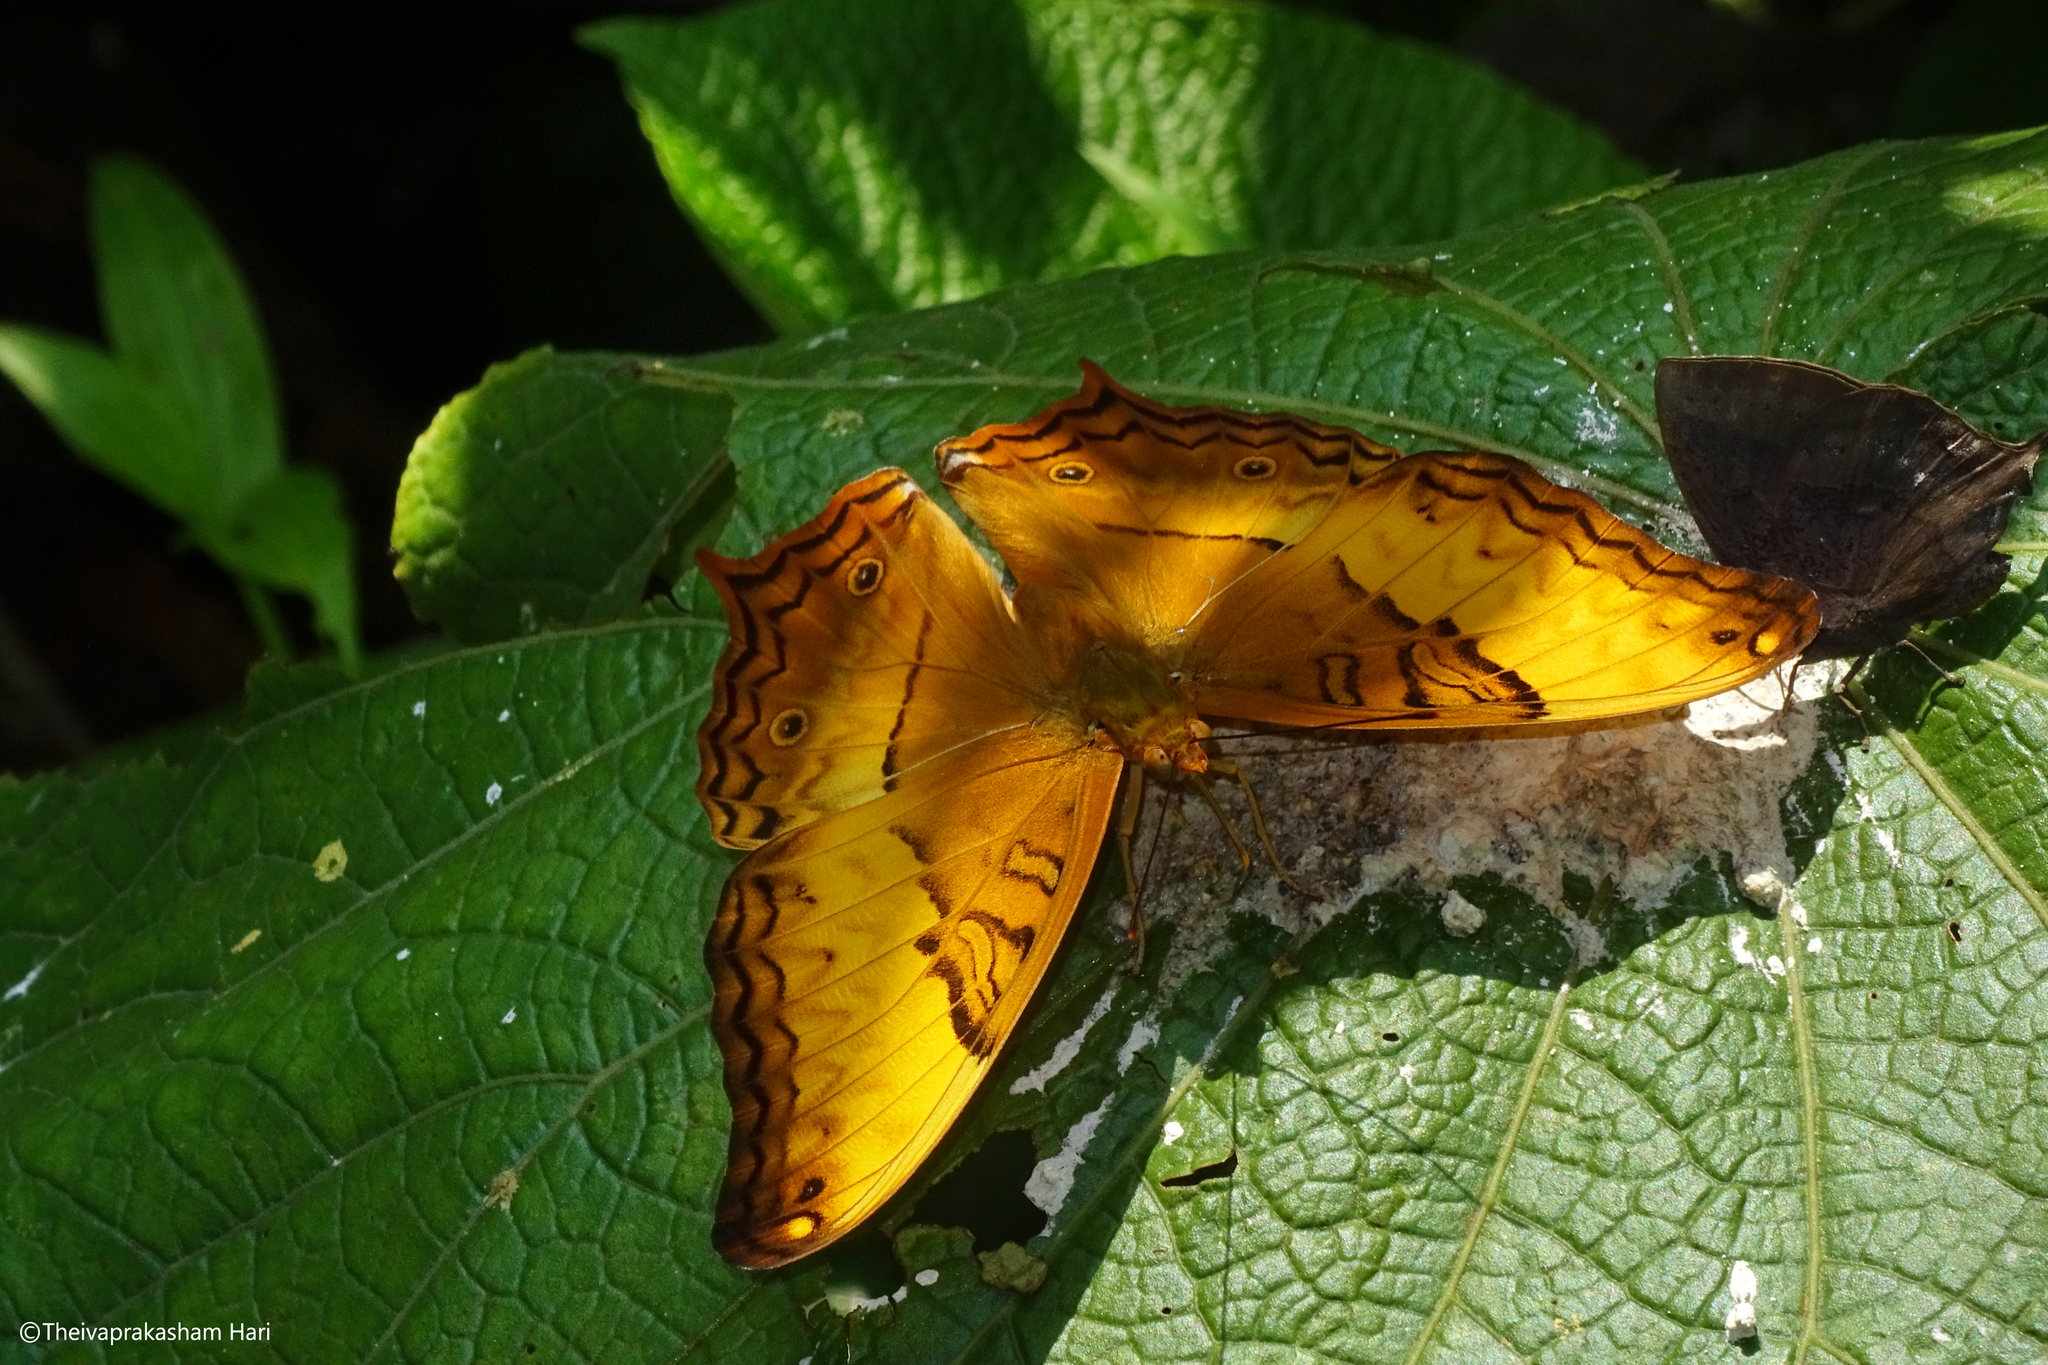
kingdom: Animalia
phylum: Arthropoda
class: Insecta
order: Lepidoptera
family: Nymphalidae
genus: Vindula
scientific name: Vindula erota
